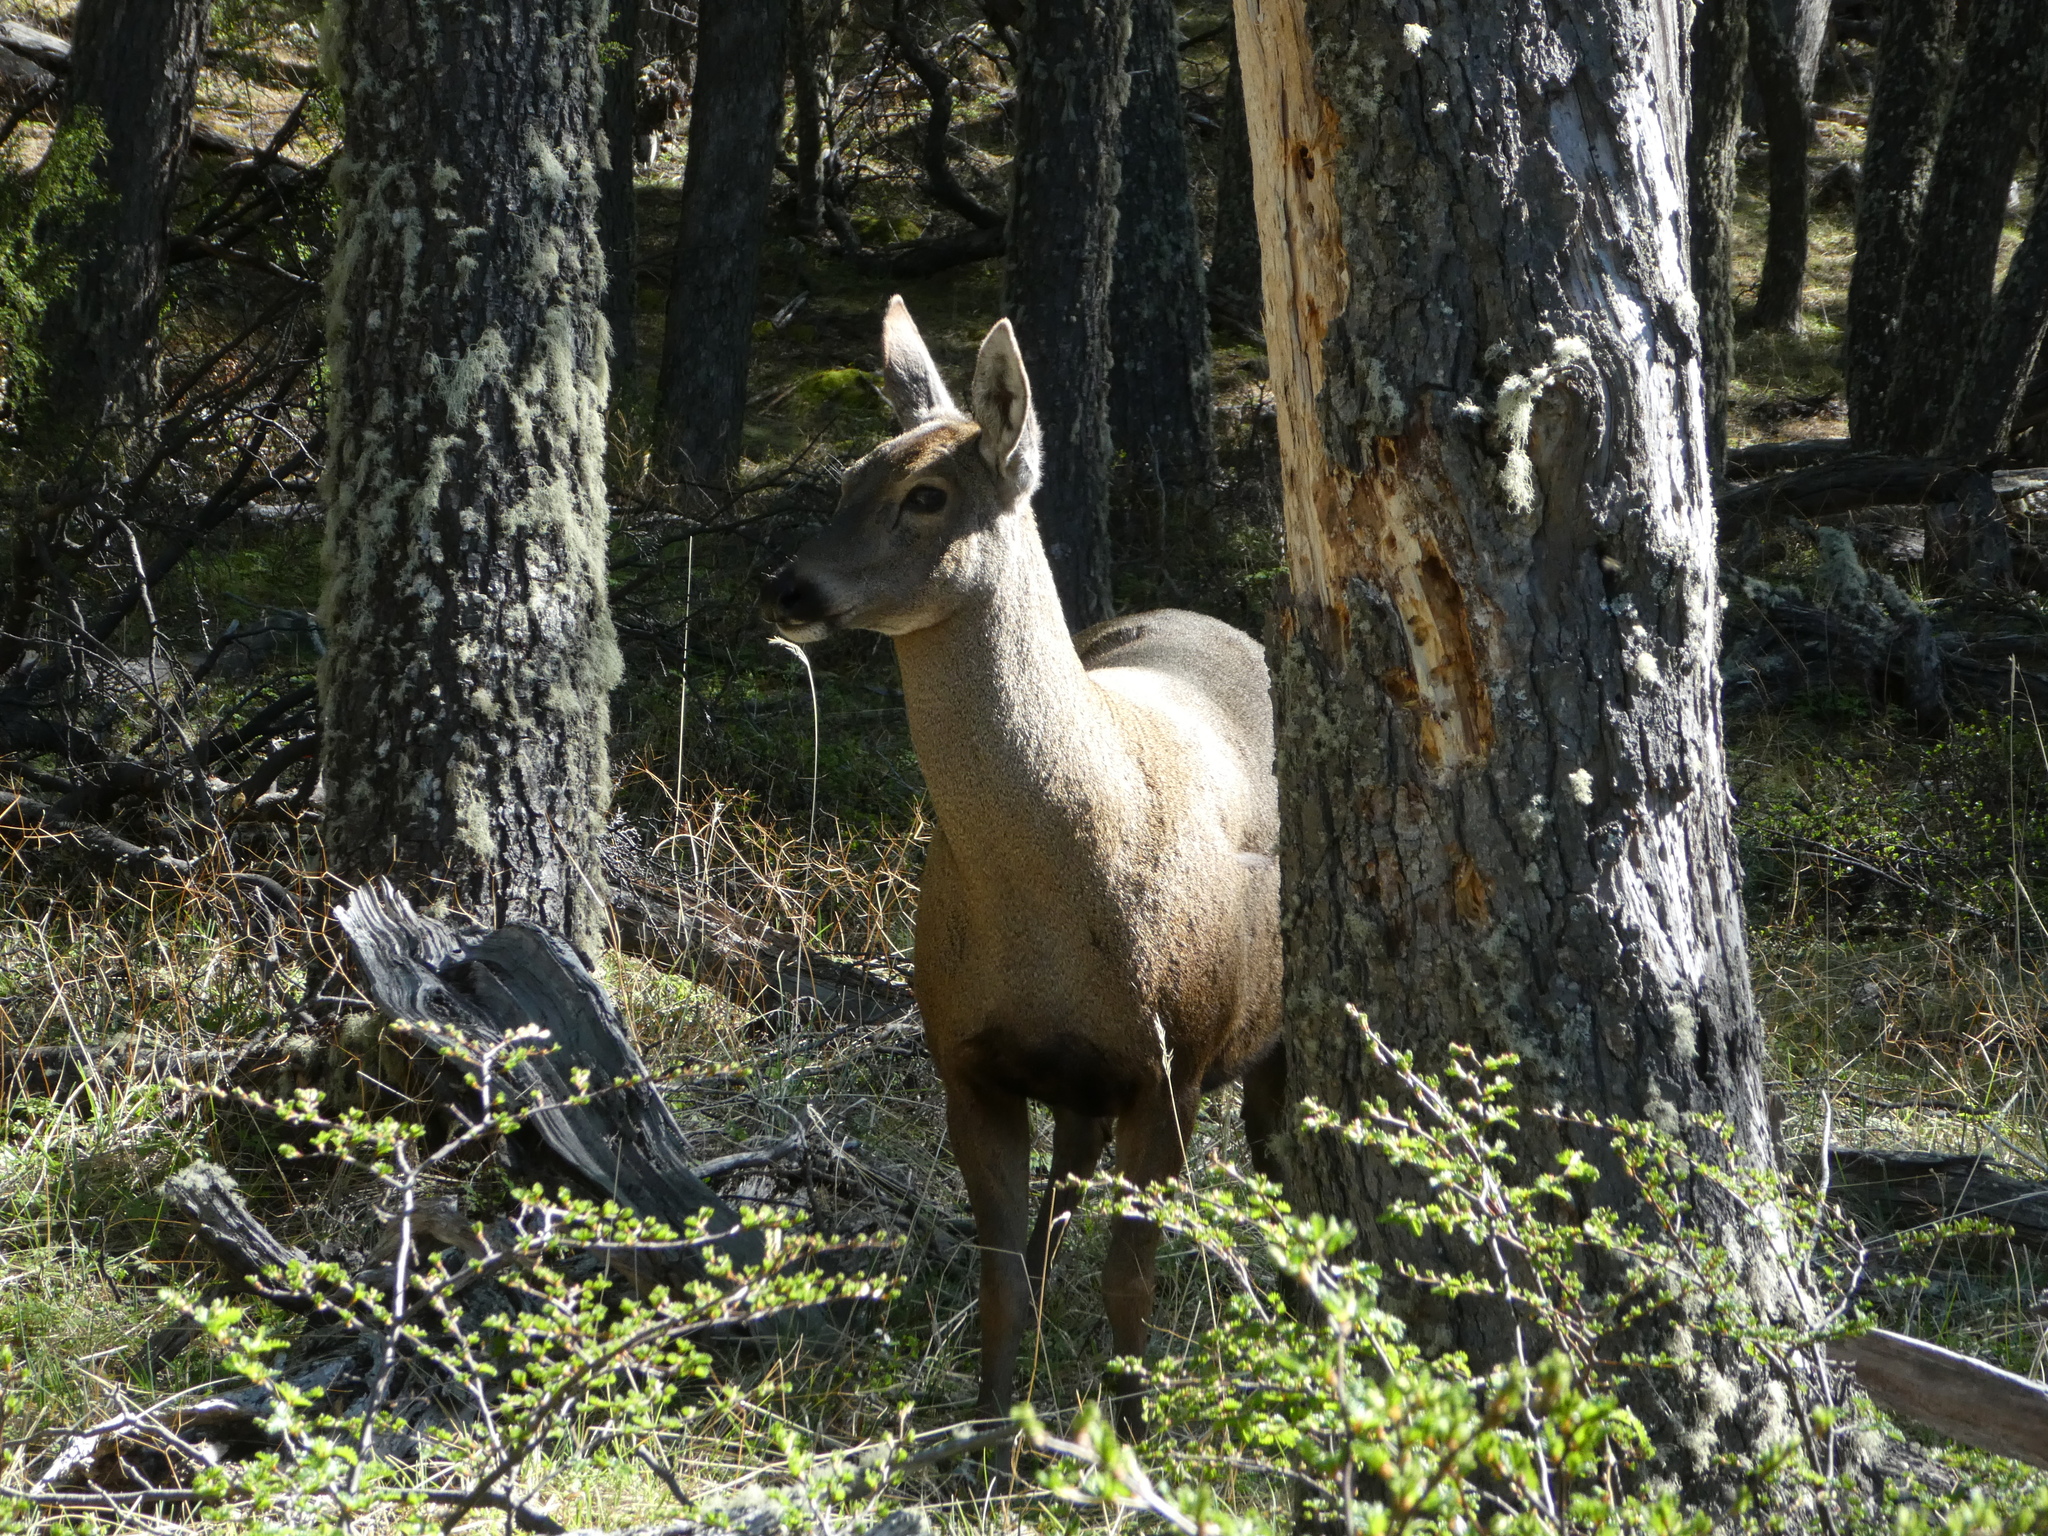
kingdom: Animalia
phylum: Chordata
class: Mammalia
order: Artiodactyla
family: Cervidae
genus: Hippocamelus
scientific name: Hippocamelus bisulcus
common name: South andean huemul
